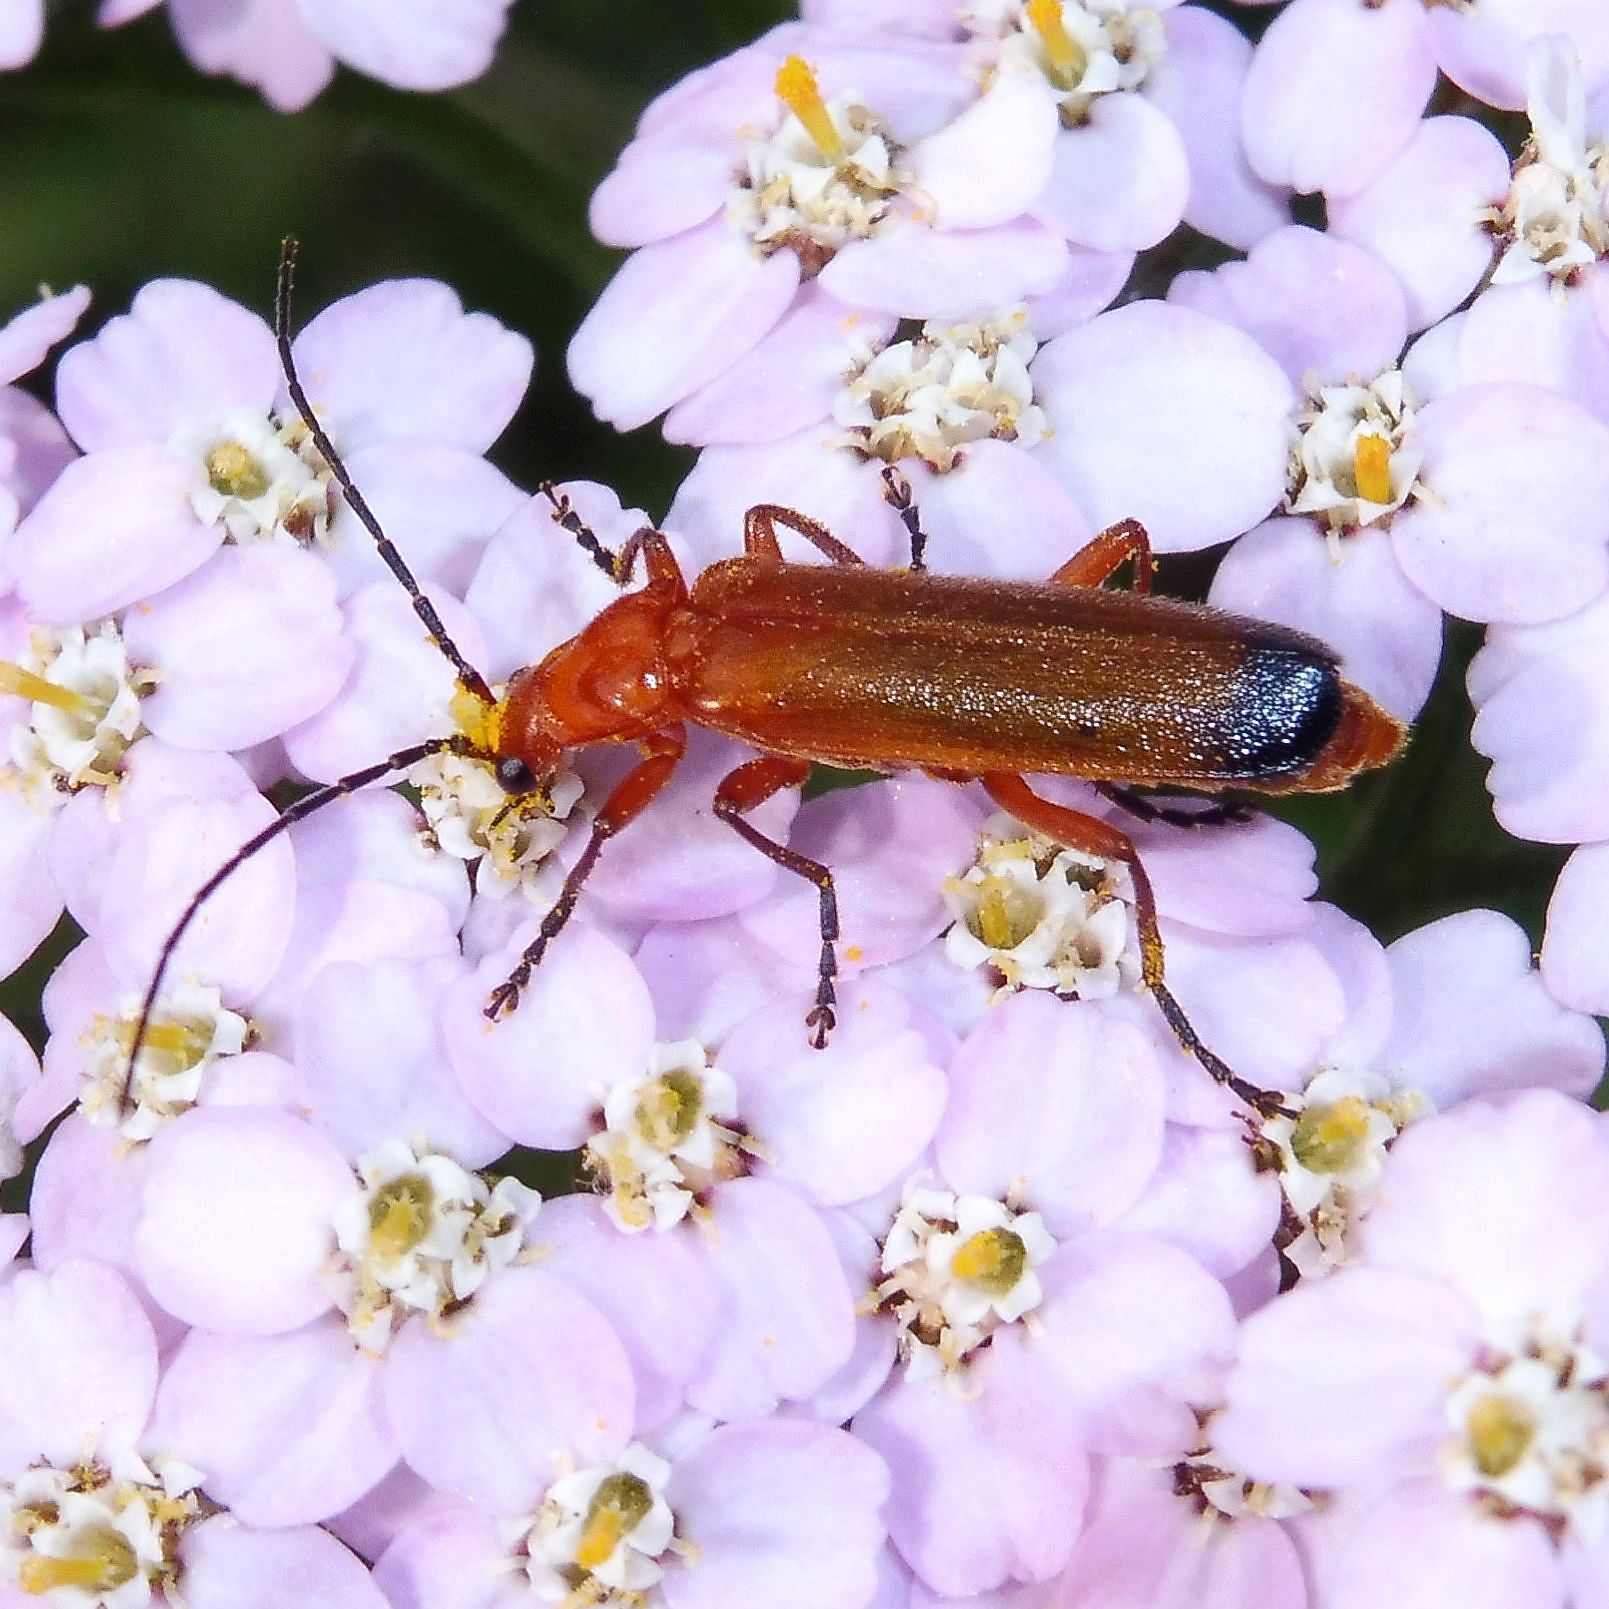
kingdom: Animalia
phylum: Arthropoda
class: Insecta
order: Coleoptera
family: Cantharidae
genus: Rhagonycha
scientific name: Rhagonycha fulva
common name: Common red soldier beetle
